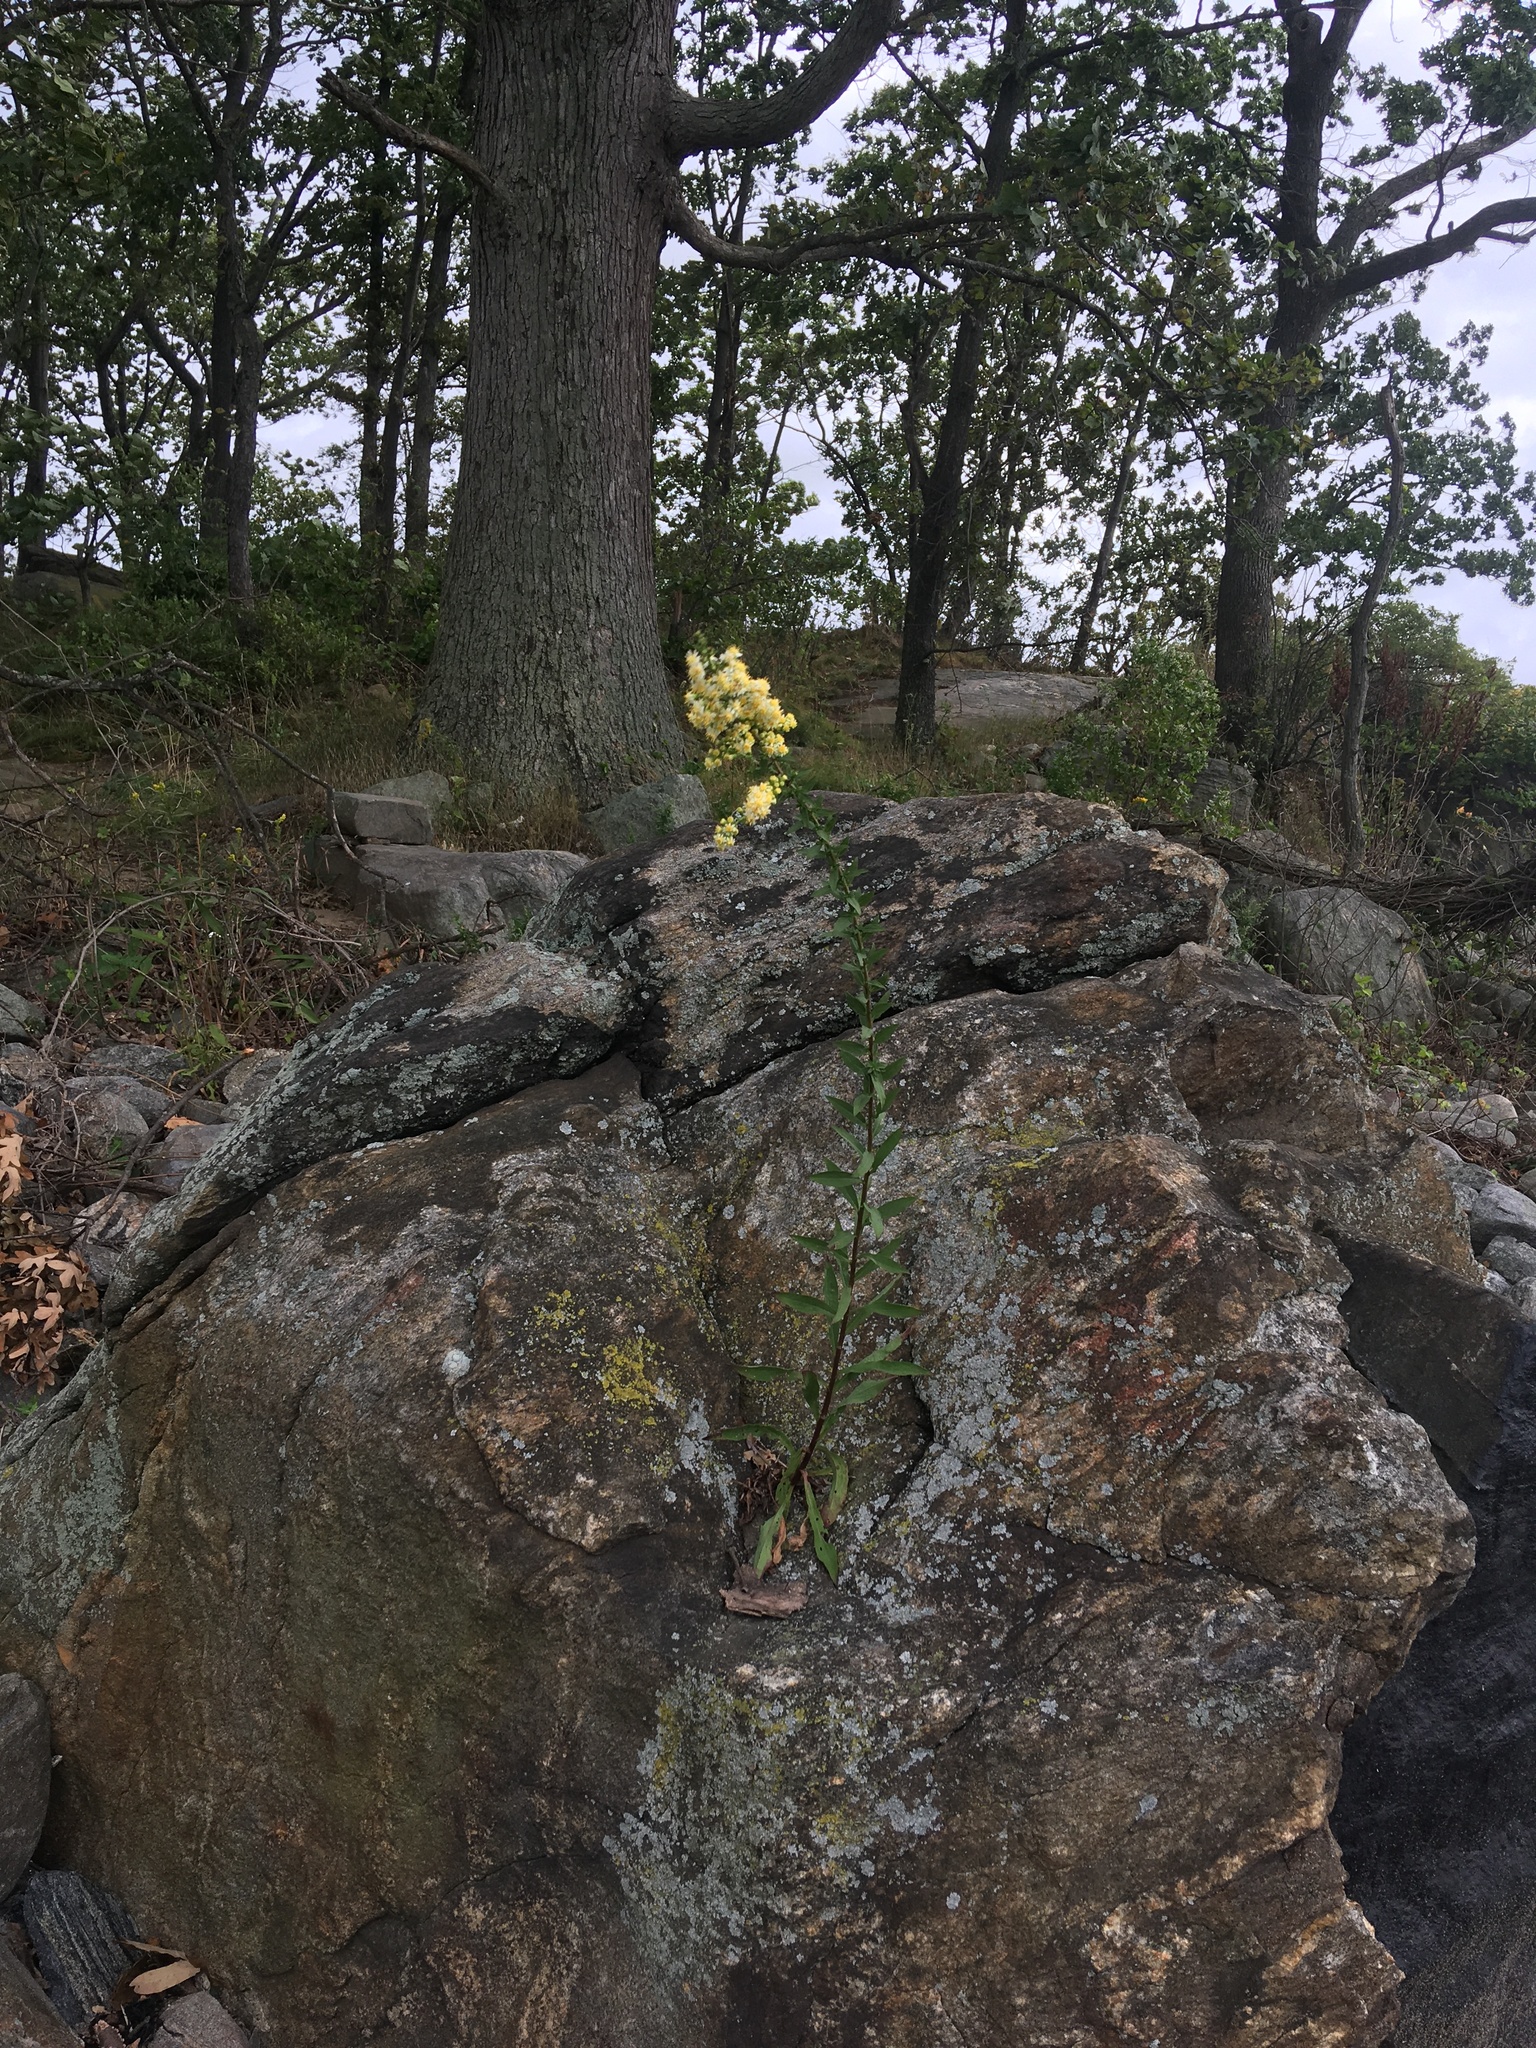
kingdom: Plantae
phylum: Tracheophyta
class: Magnoliopsida
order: Asterales
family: Asteraceae
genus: Solidago
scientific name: Solidago bicolor
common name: Silverrod
